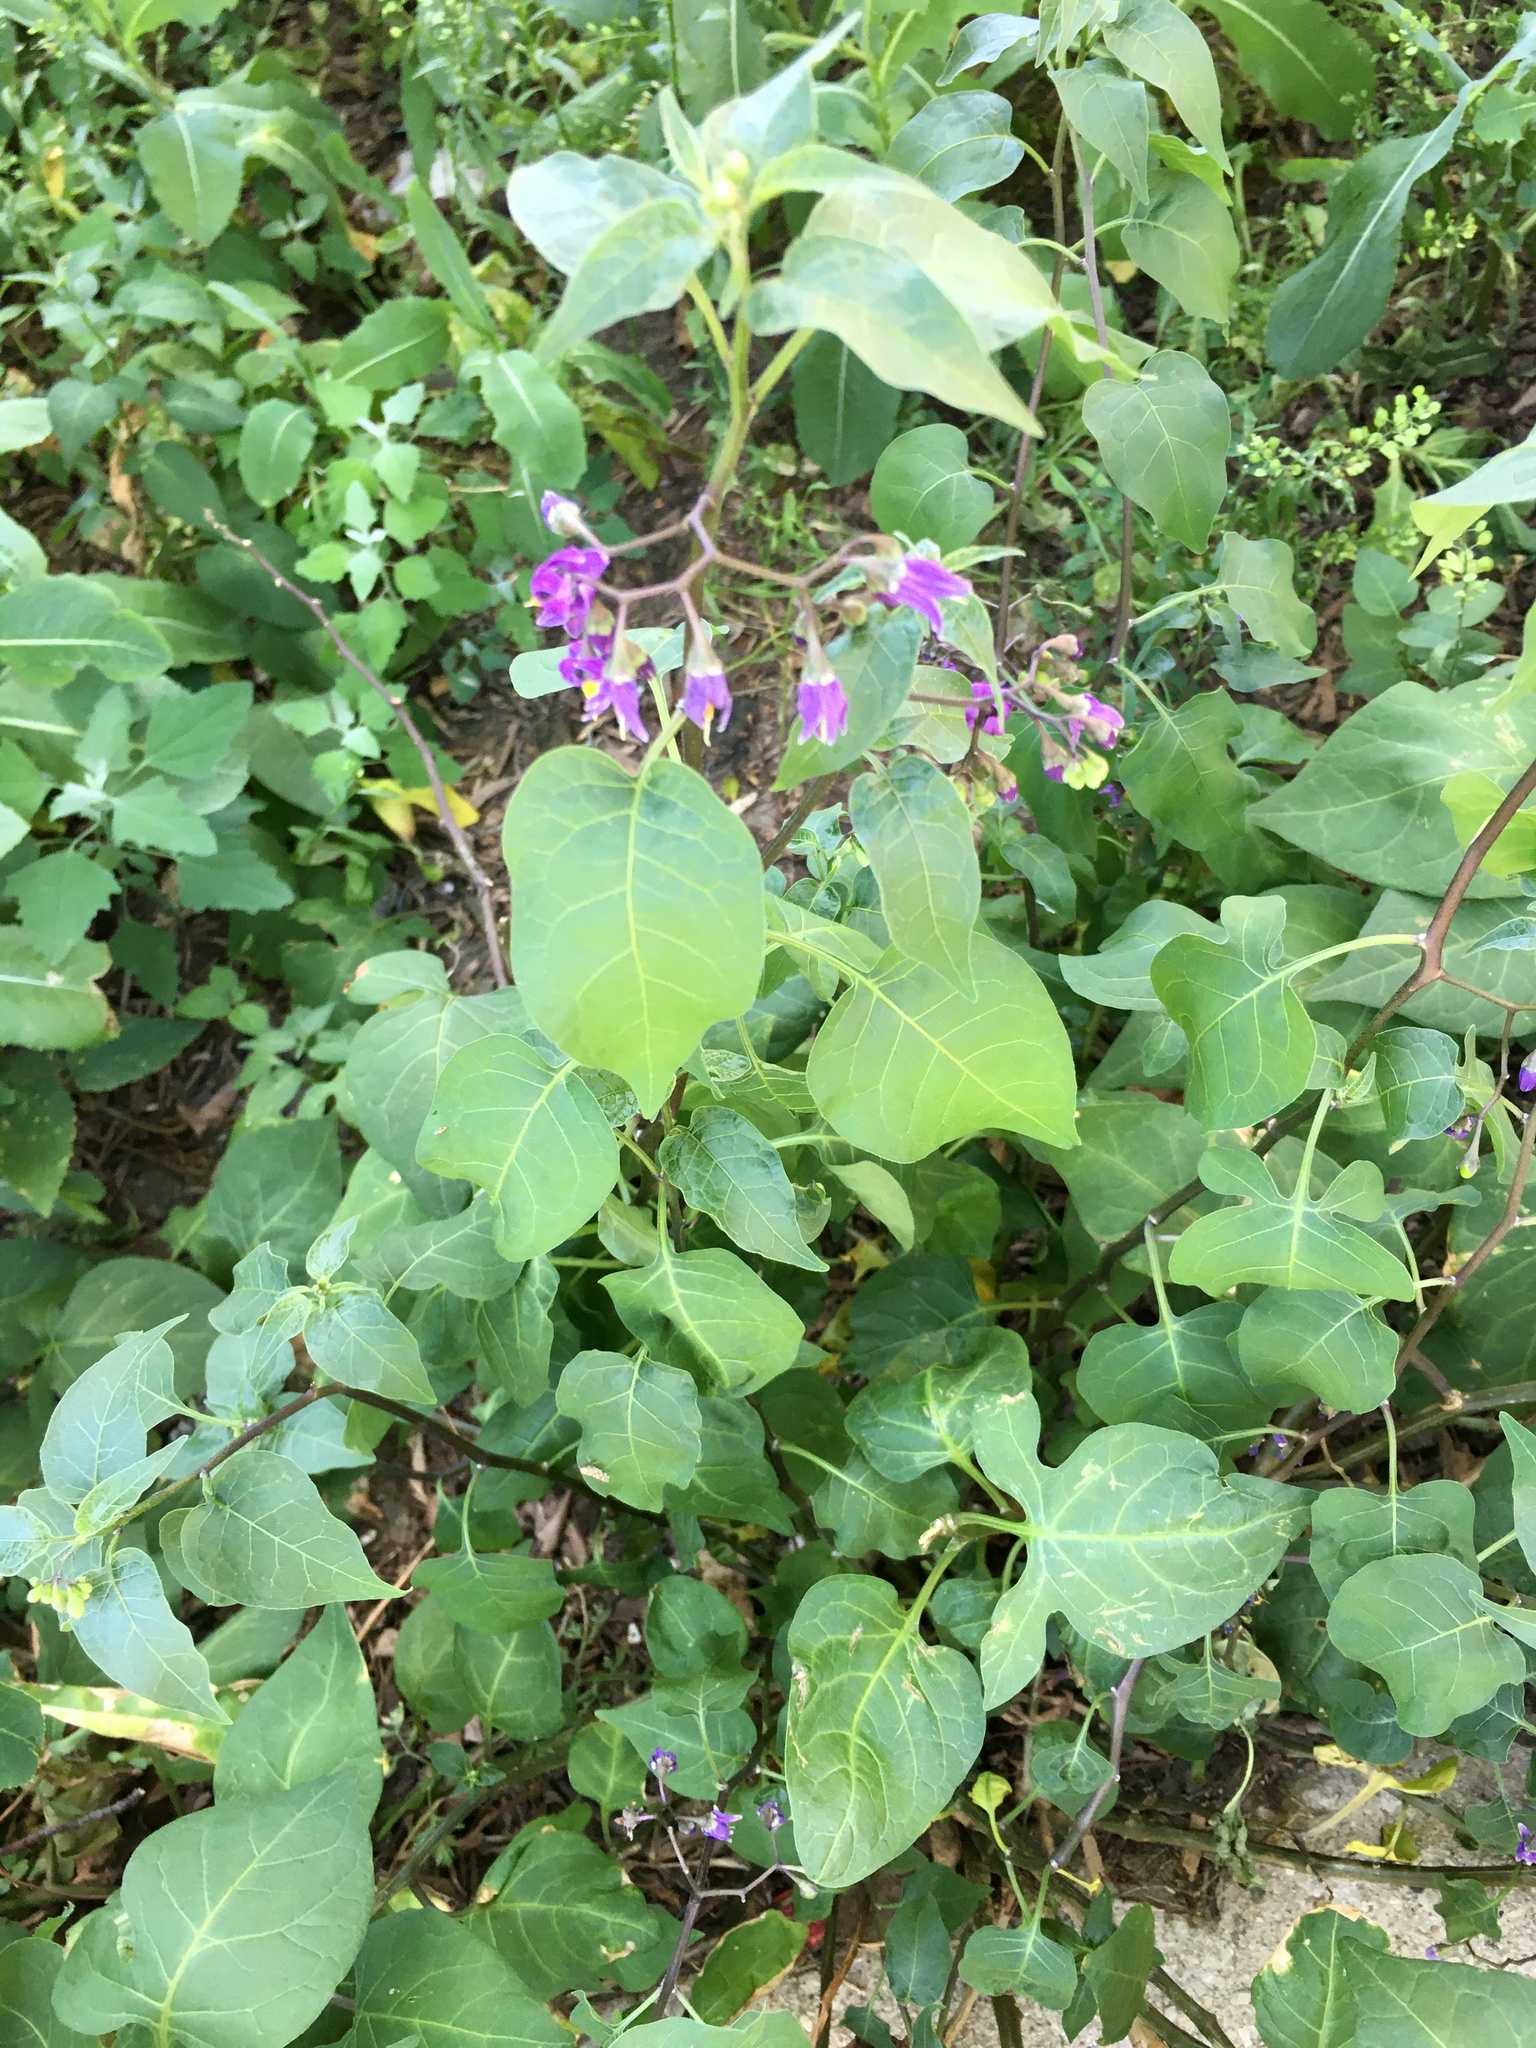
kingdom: Plantae
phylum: Tracheophyta
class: Magnoliopsida
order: Solanales
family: Solanaceae
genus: Solanum
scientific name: Solanum dulcamara
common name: Climbing nightshade
